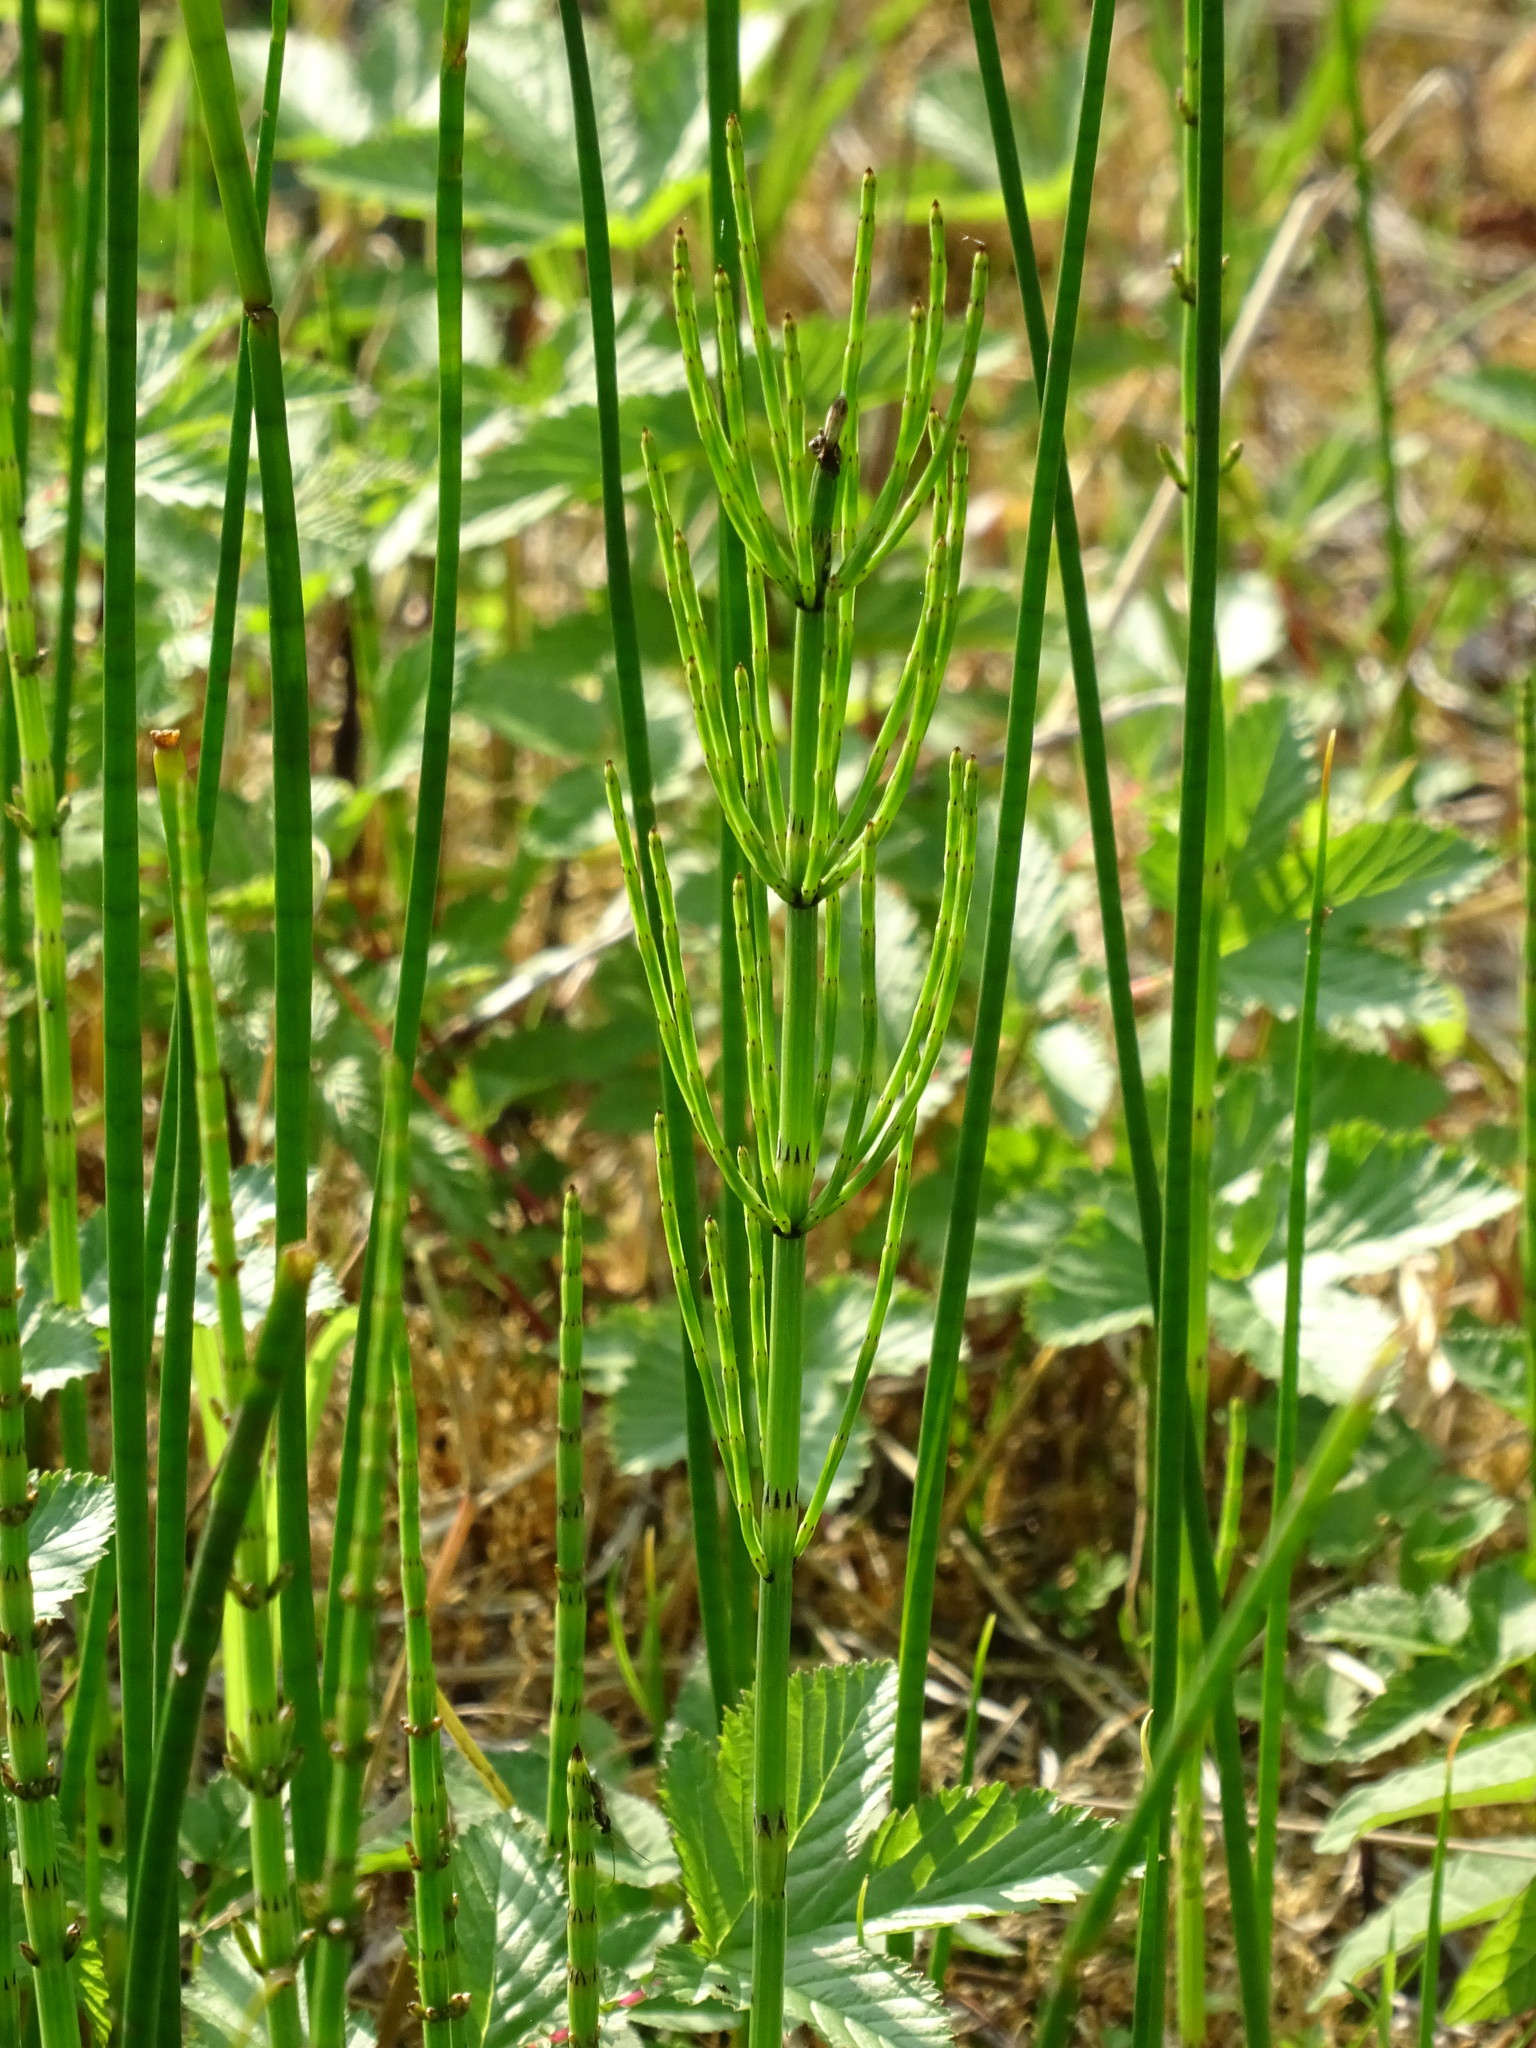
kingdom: Plantae
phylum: Tracheophyta
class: Polypodiopsida
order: Equisetales
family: Equisetaceae
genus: Equisetum
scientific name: Equisetum palustre
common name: Marsh horsetail
